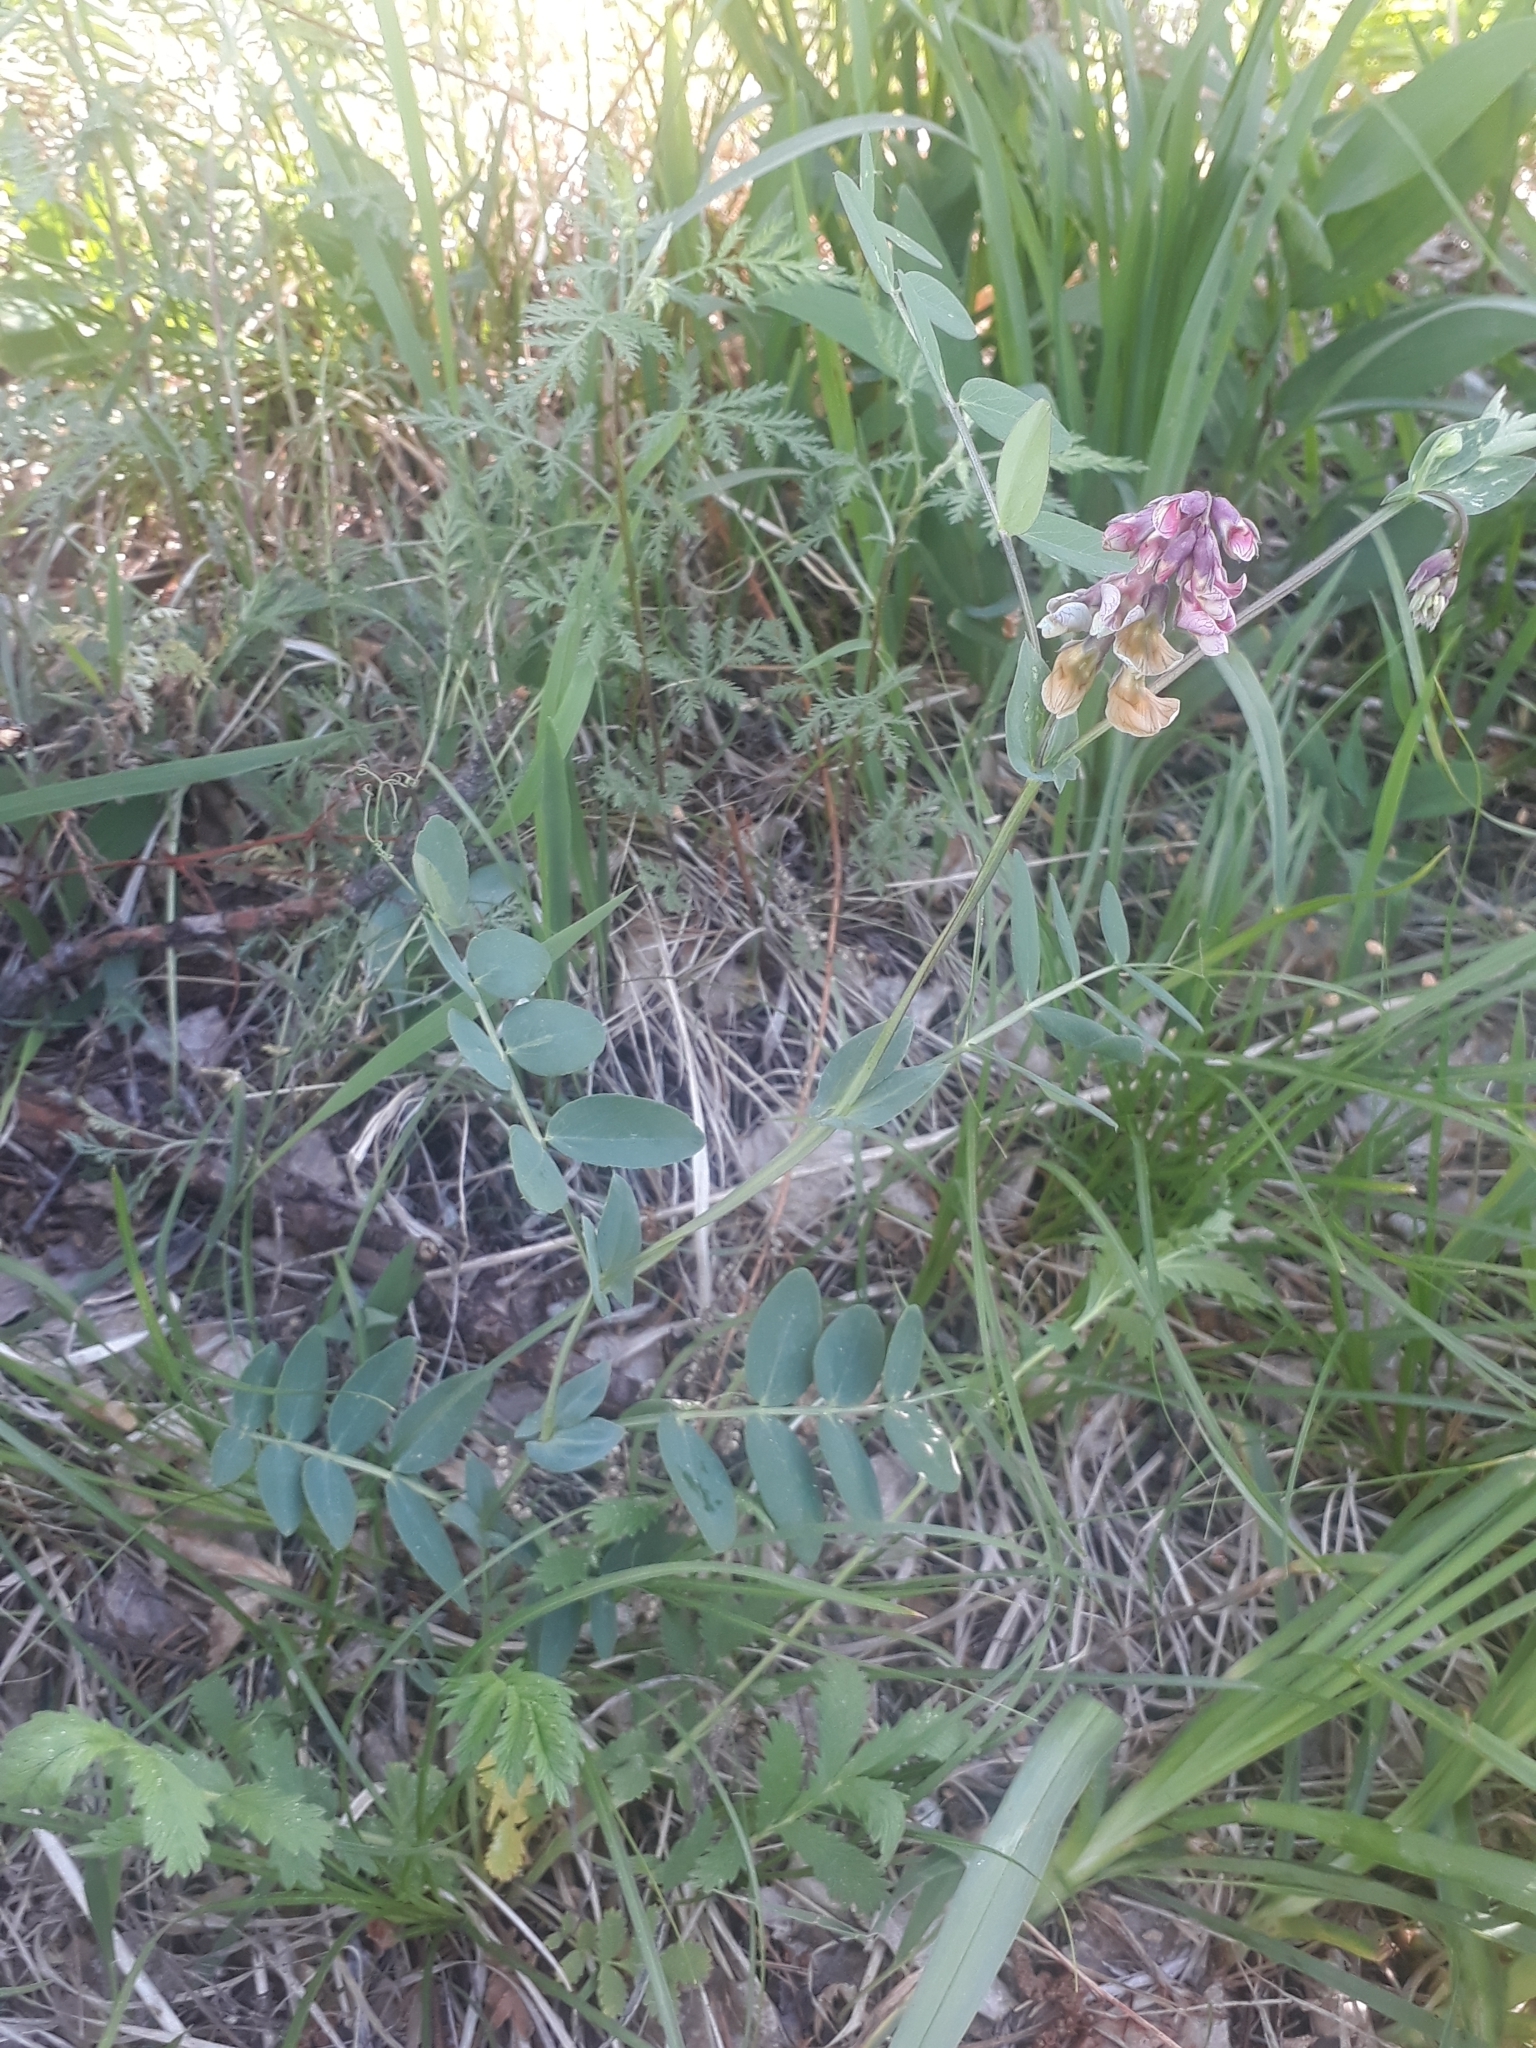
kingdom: Plantae
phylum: Tracheophyta
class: Magnoliopsida
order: Fabales
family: Fabaceae
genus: Lathyrus
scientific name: Lathyrus pisiformis
